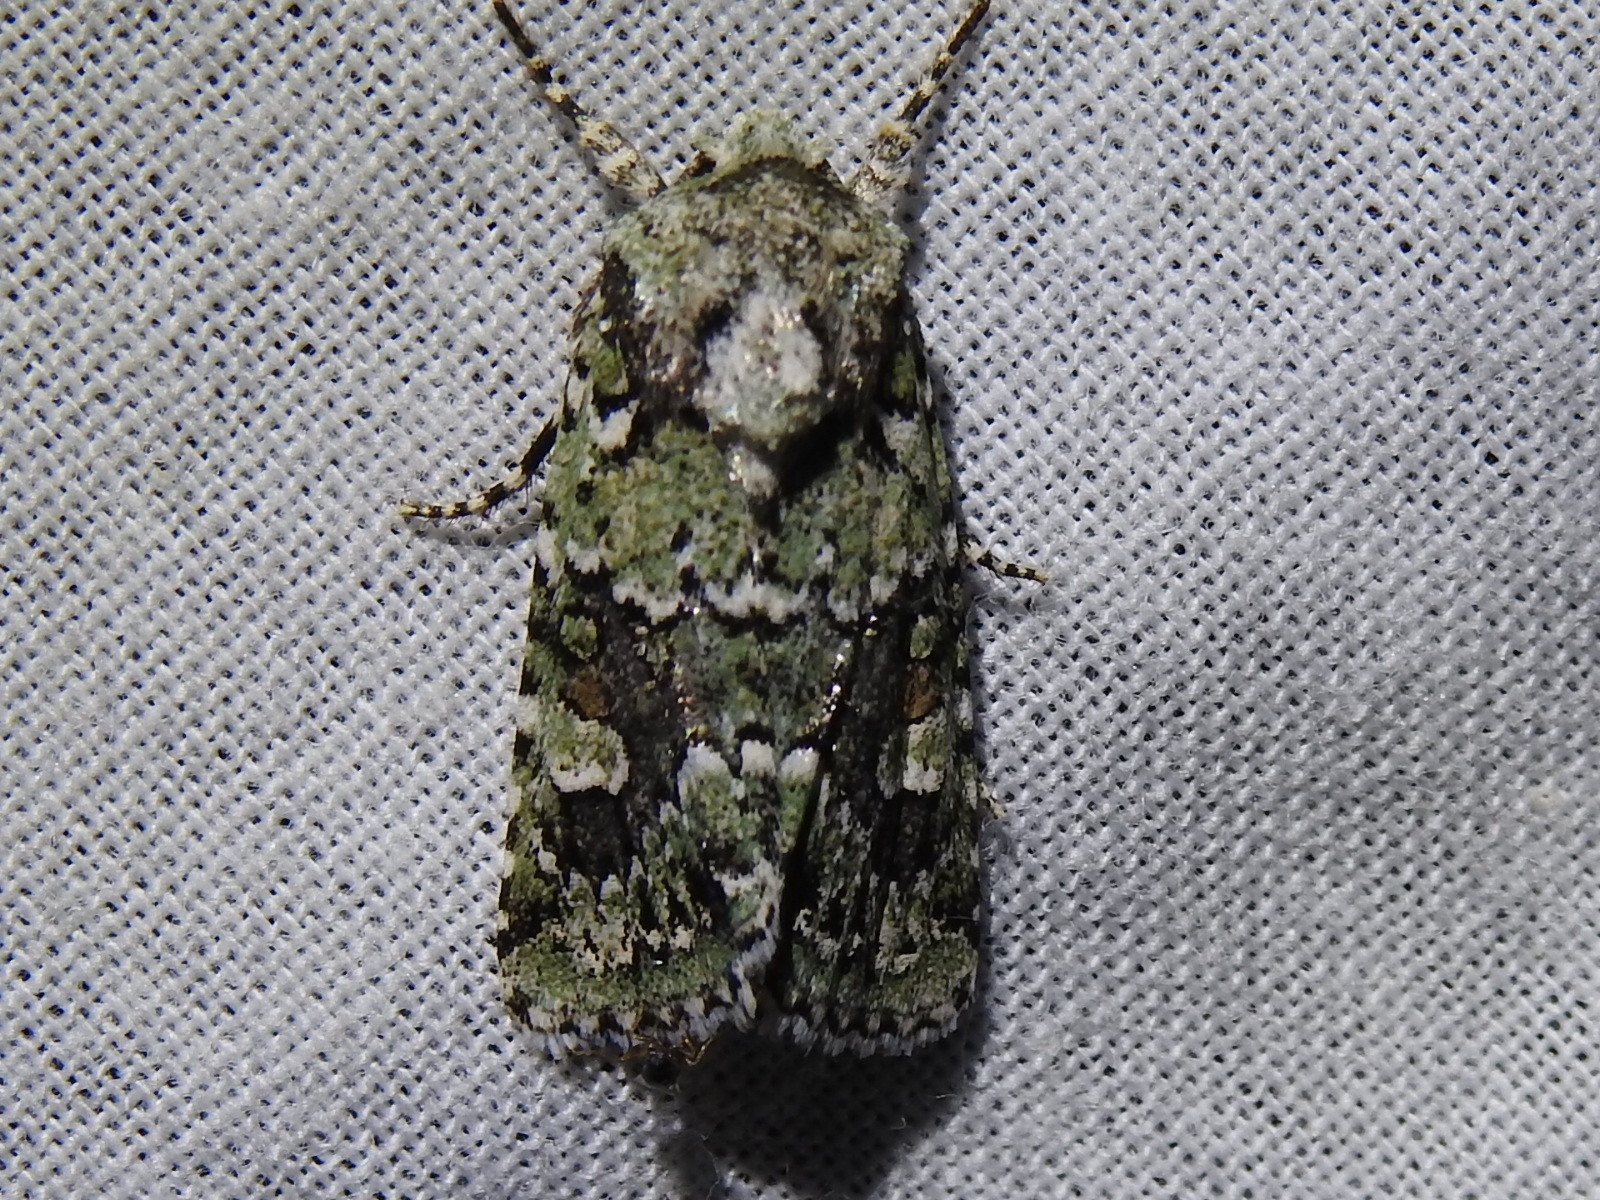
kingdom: Animalia
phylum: Arthropoda
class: Insecta
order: Lepidoptera
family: Noctuidae
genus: Lacinipolia
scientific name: Lacinipolia laudabilis
